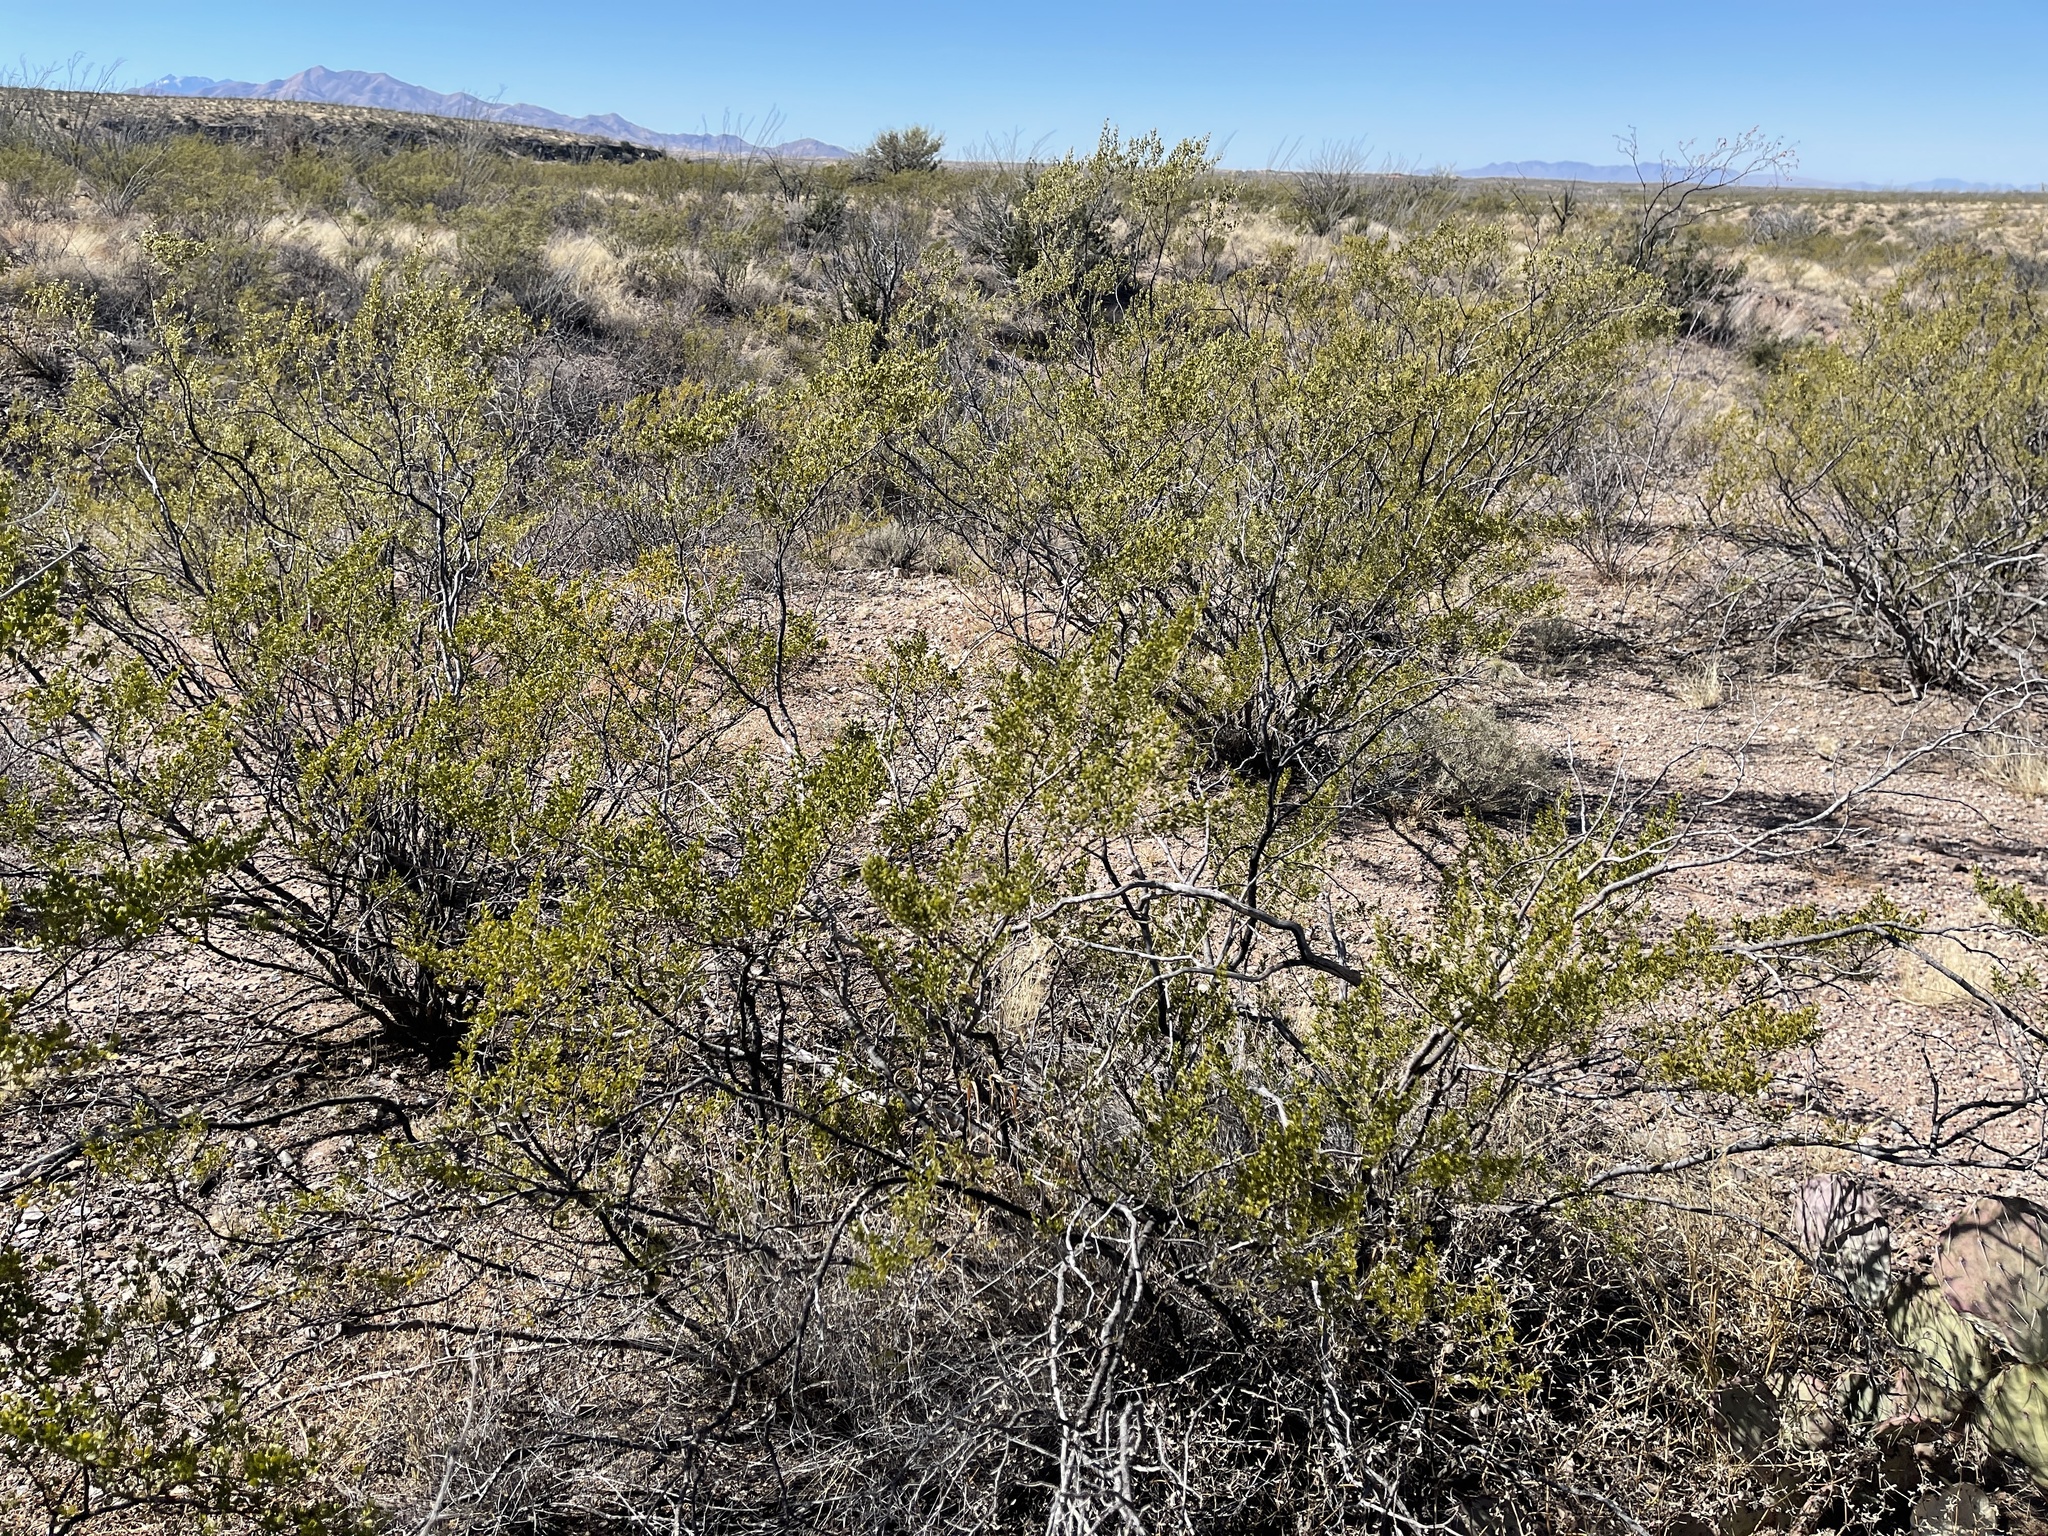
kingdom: Plantae
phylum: Tracheophyta
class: Magnoliopsida
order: Zygophyllales
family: Zygophyllaceae
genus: Larrea
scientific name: Larrea tridentata
